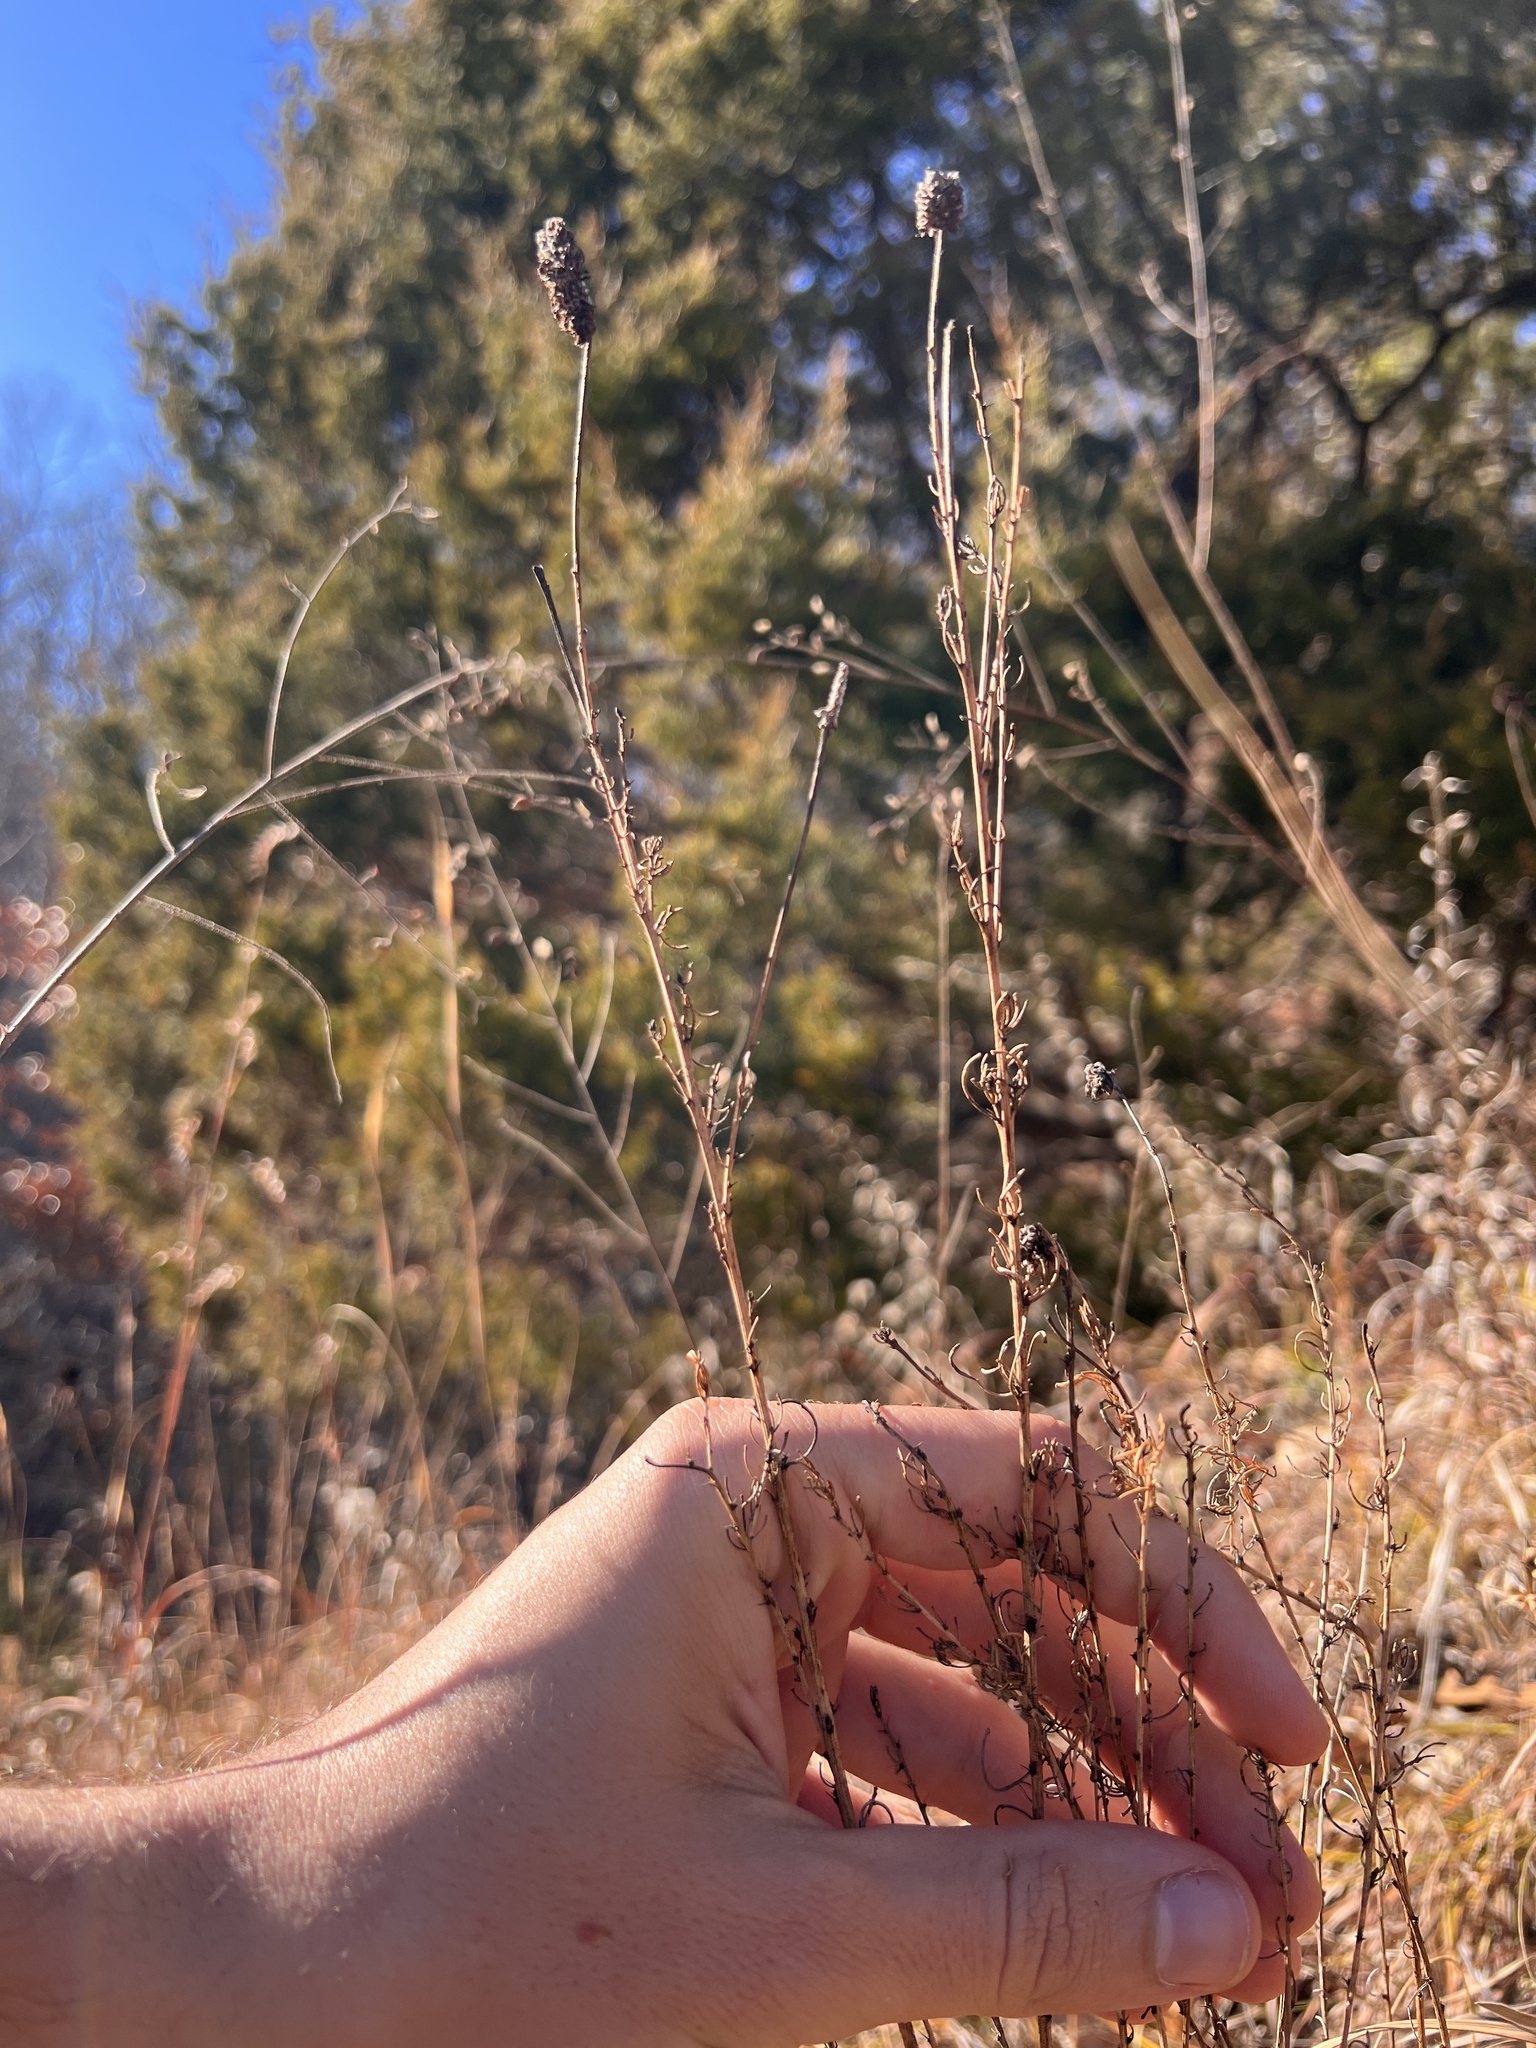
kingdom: Plantae
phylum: Tracheophyta
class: Magnoliopsida
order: Fabales
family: Fabaceae
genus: Dalea
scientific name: Dalea purpurea
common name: Purple prairie-clover
